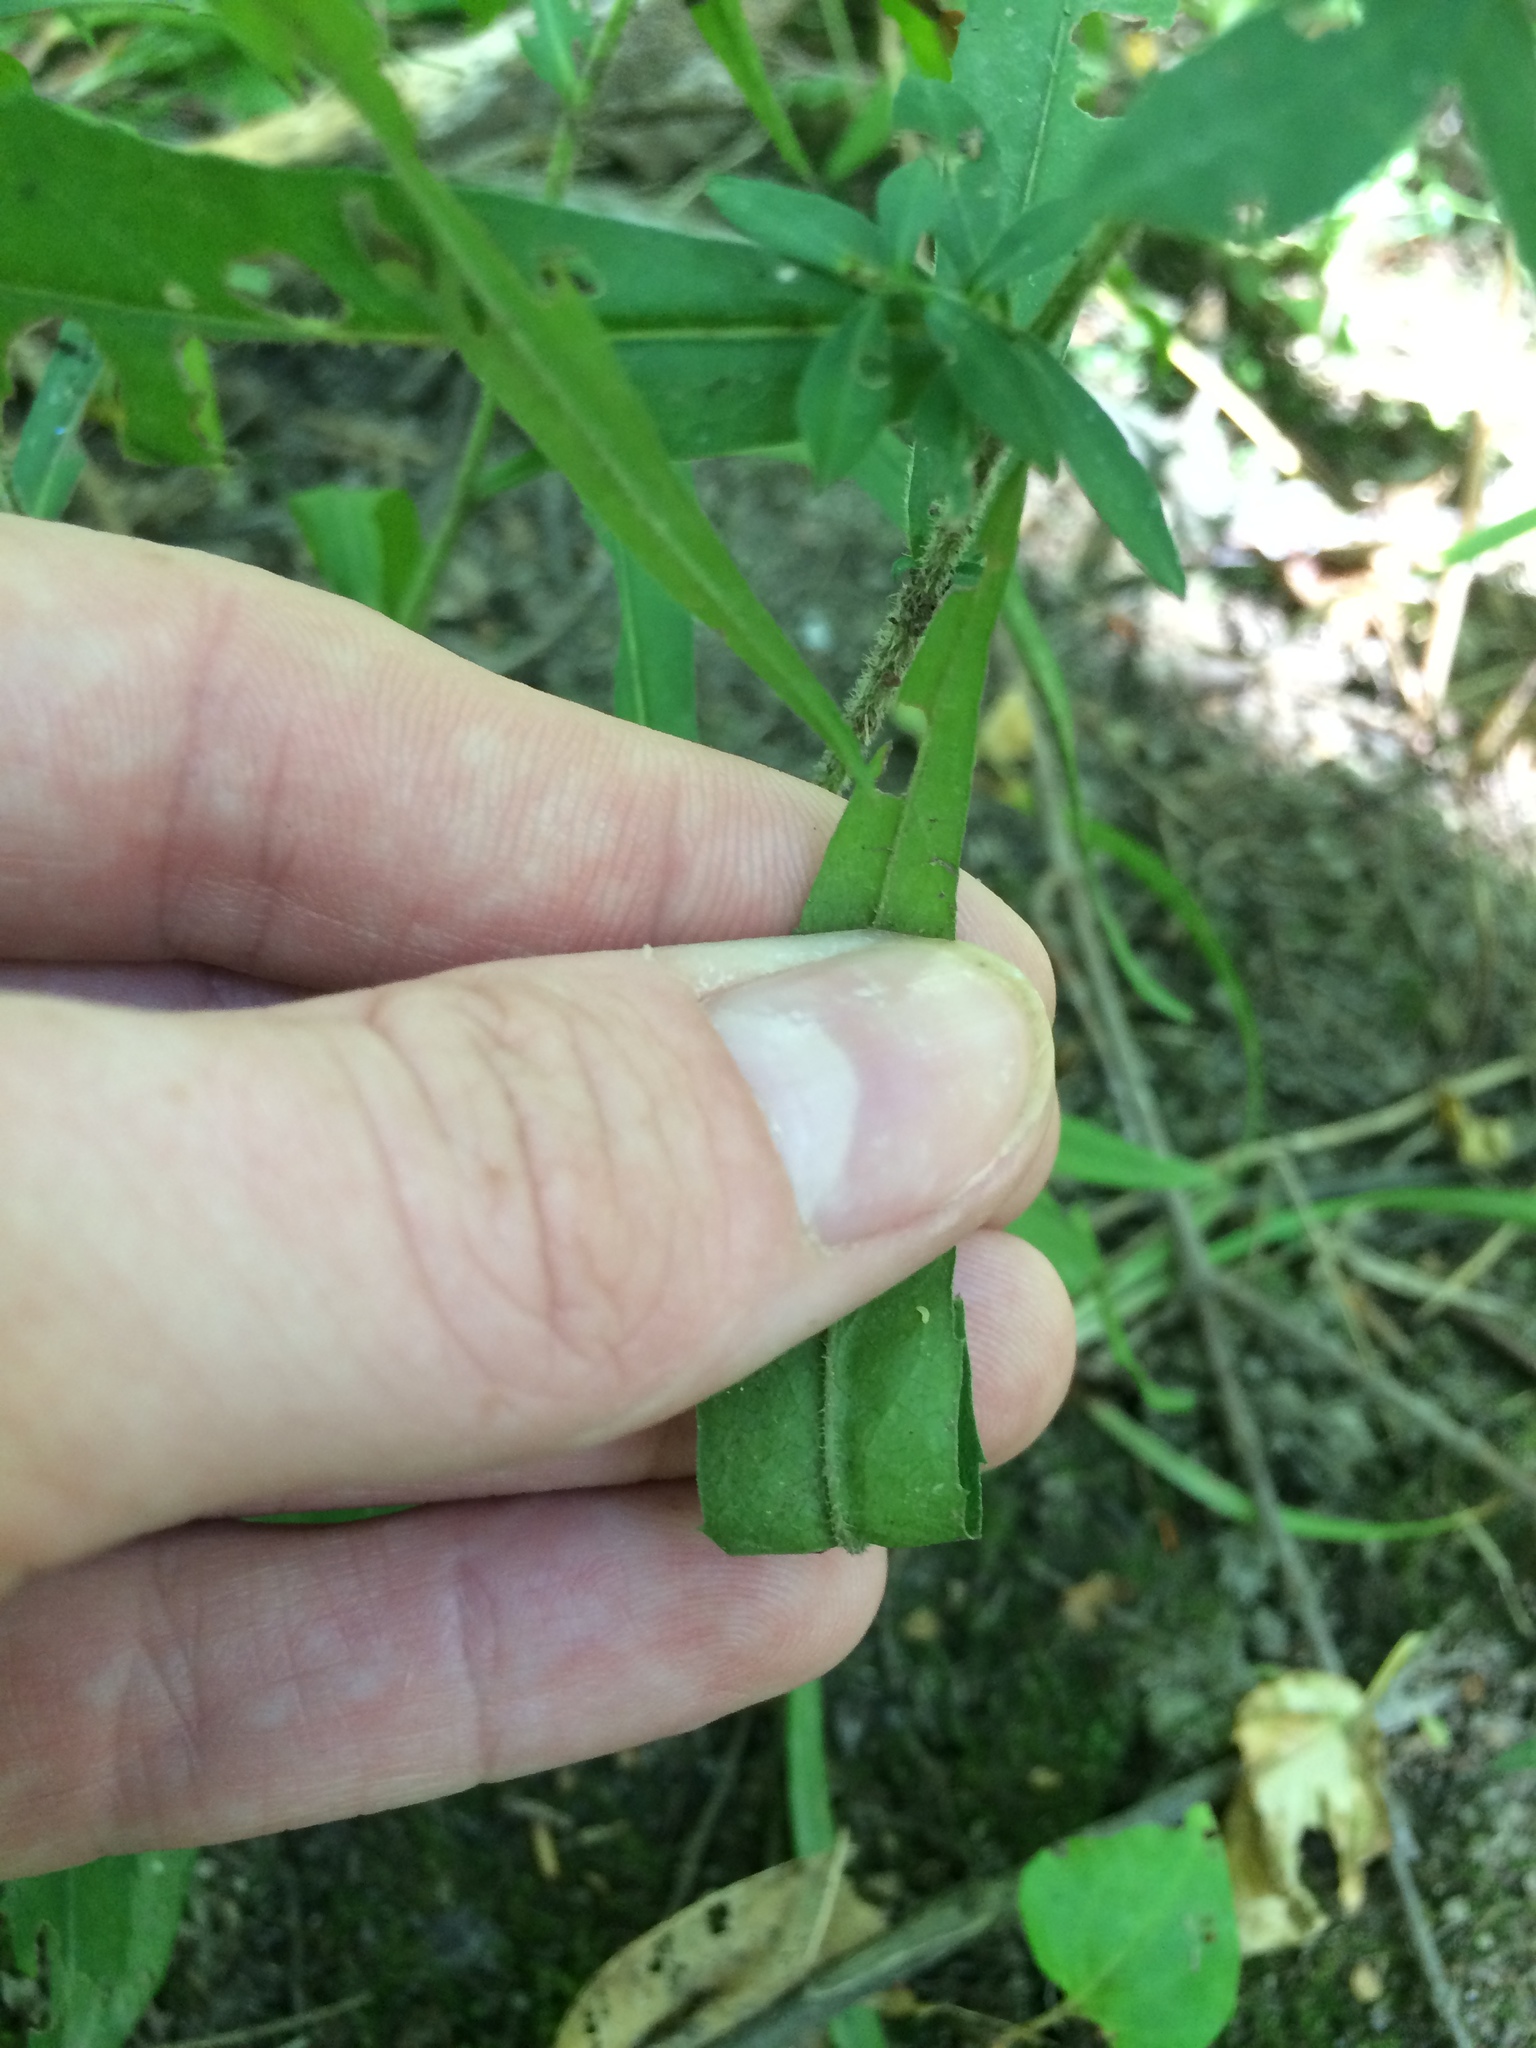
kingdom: Plantae
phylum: Tracheophyta
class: Magnoliopsida
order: Asterales
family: Asteraceae
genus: Symphyotrichum
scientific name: Symphyotrichum lateriflorum
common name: Calico aster
